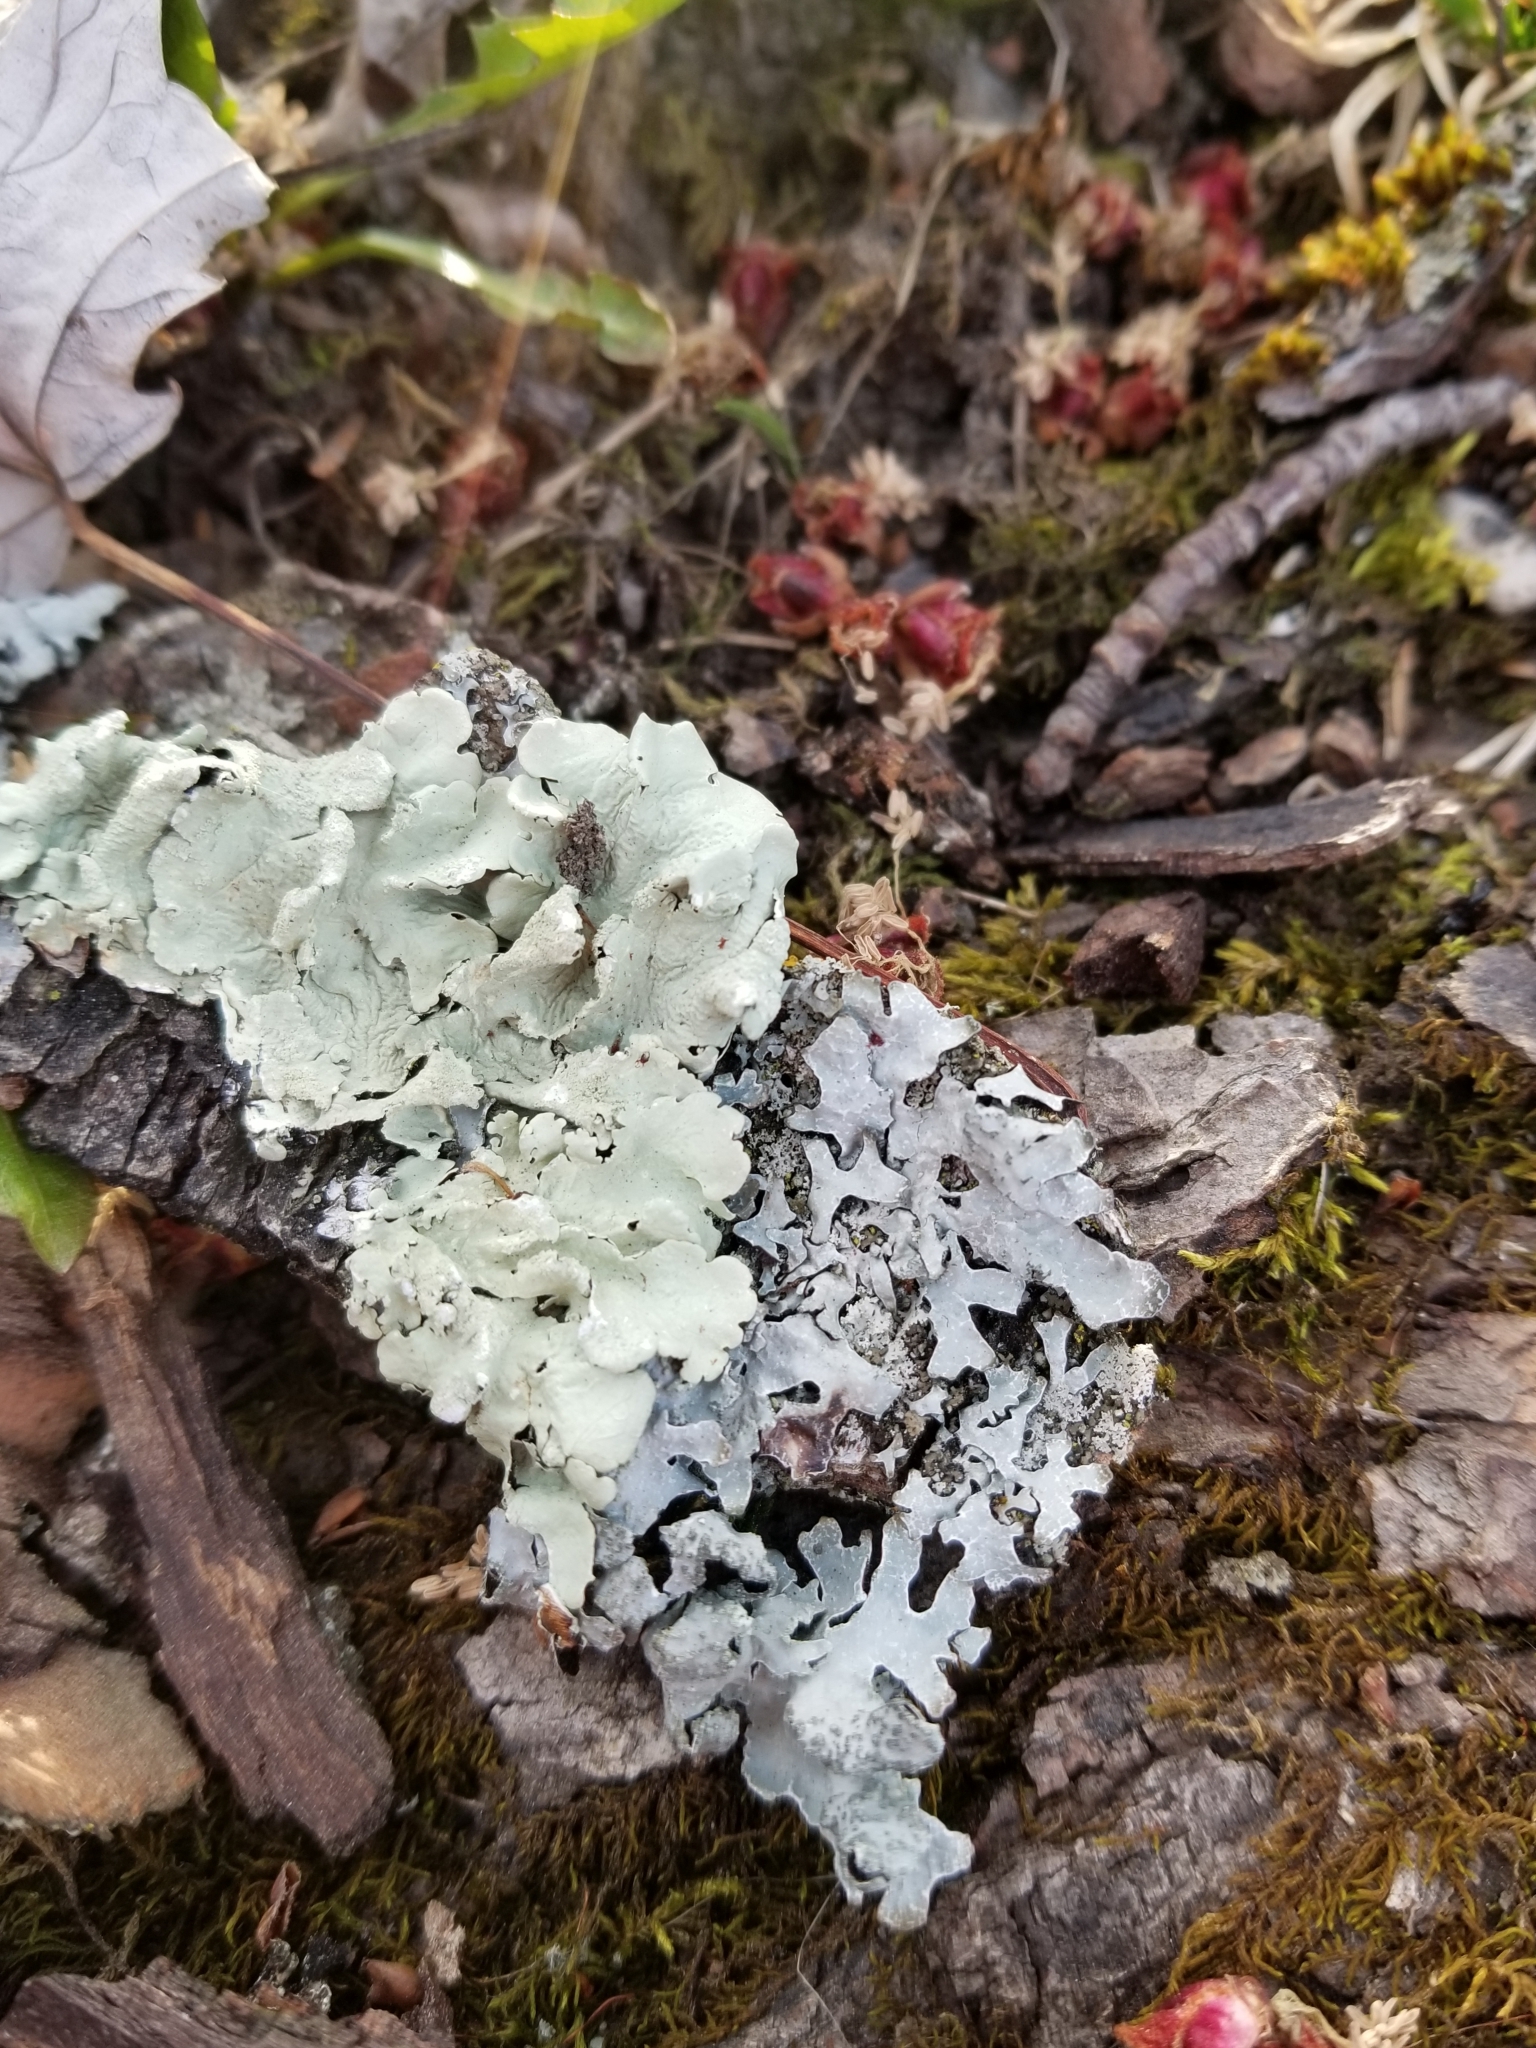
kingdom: Fungi
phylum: Ascomycota
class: Lecanoromycetes
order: Lecanorales
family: Parmeliaceae
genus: Flavoparmelia
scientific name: Flavoparmelia caperata
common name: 40-mile per hour lichen
